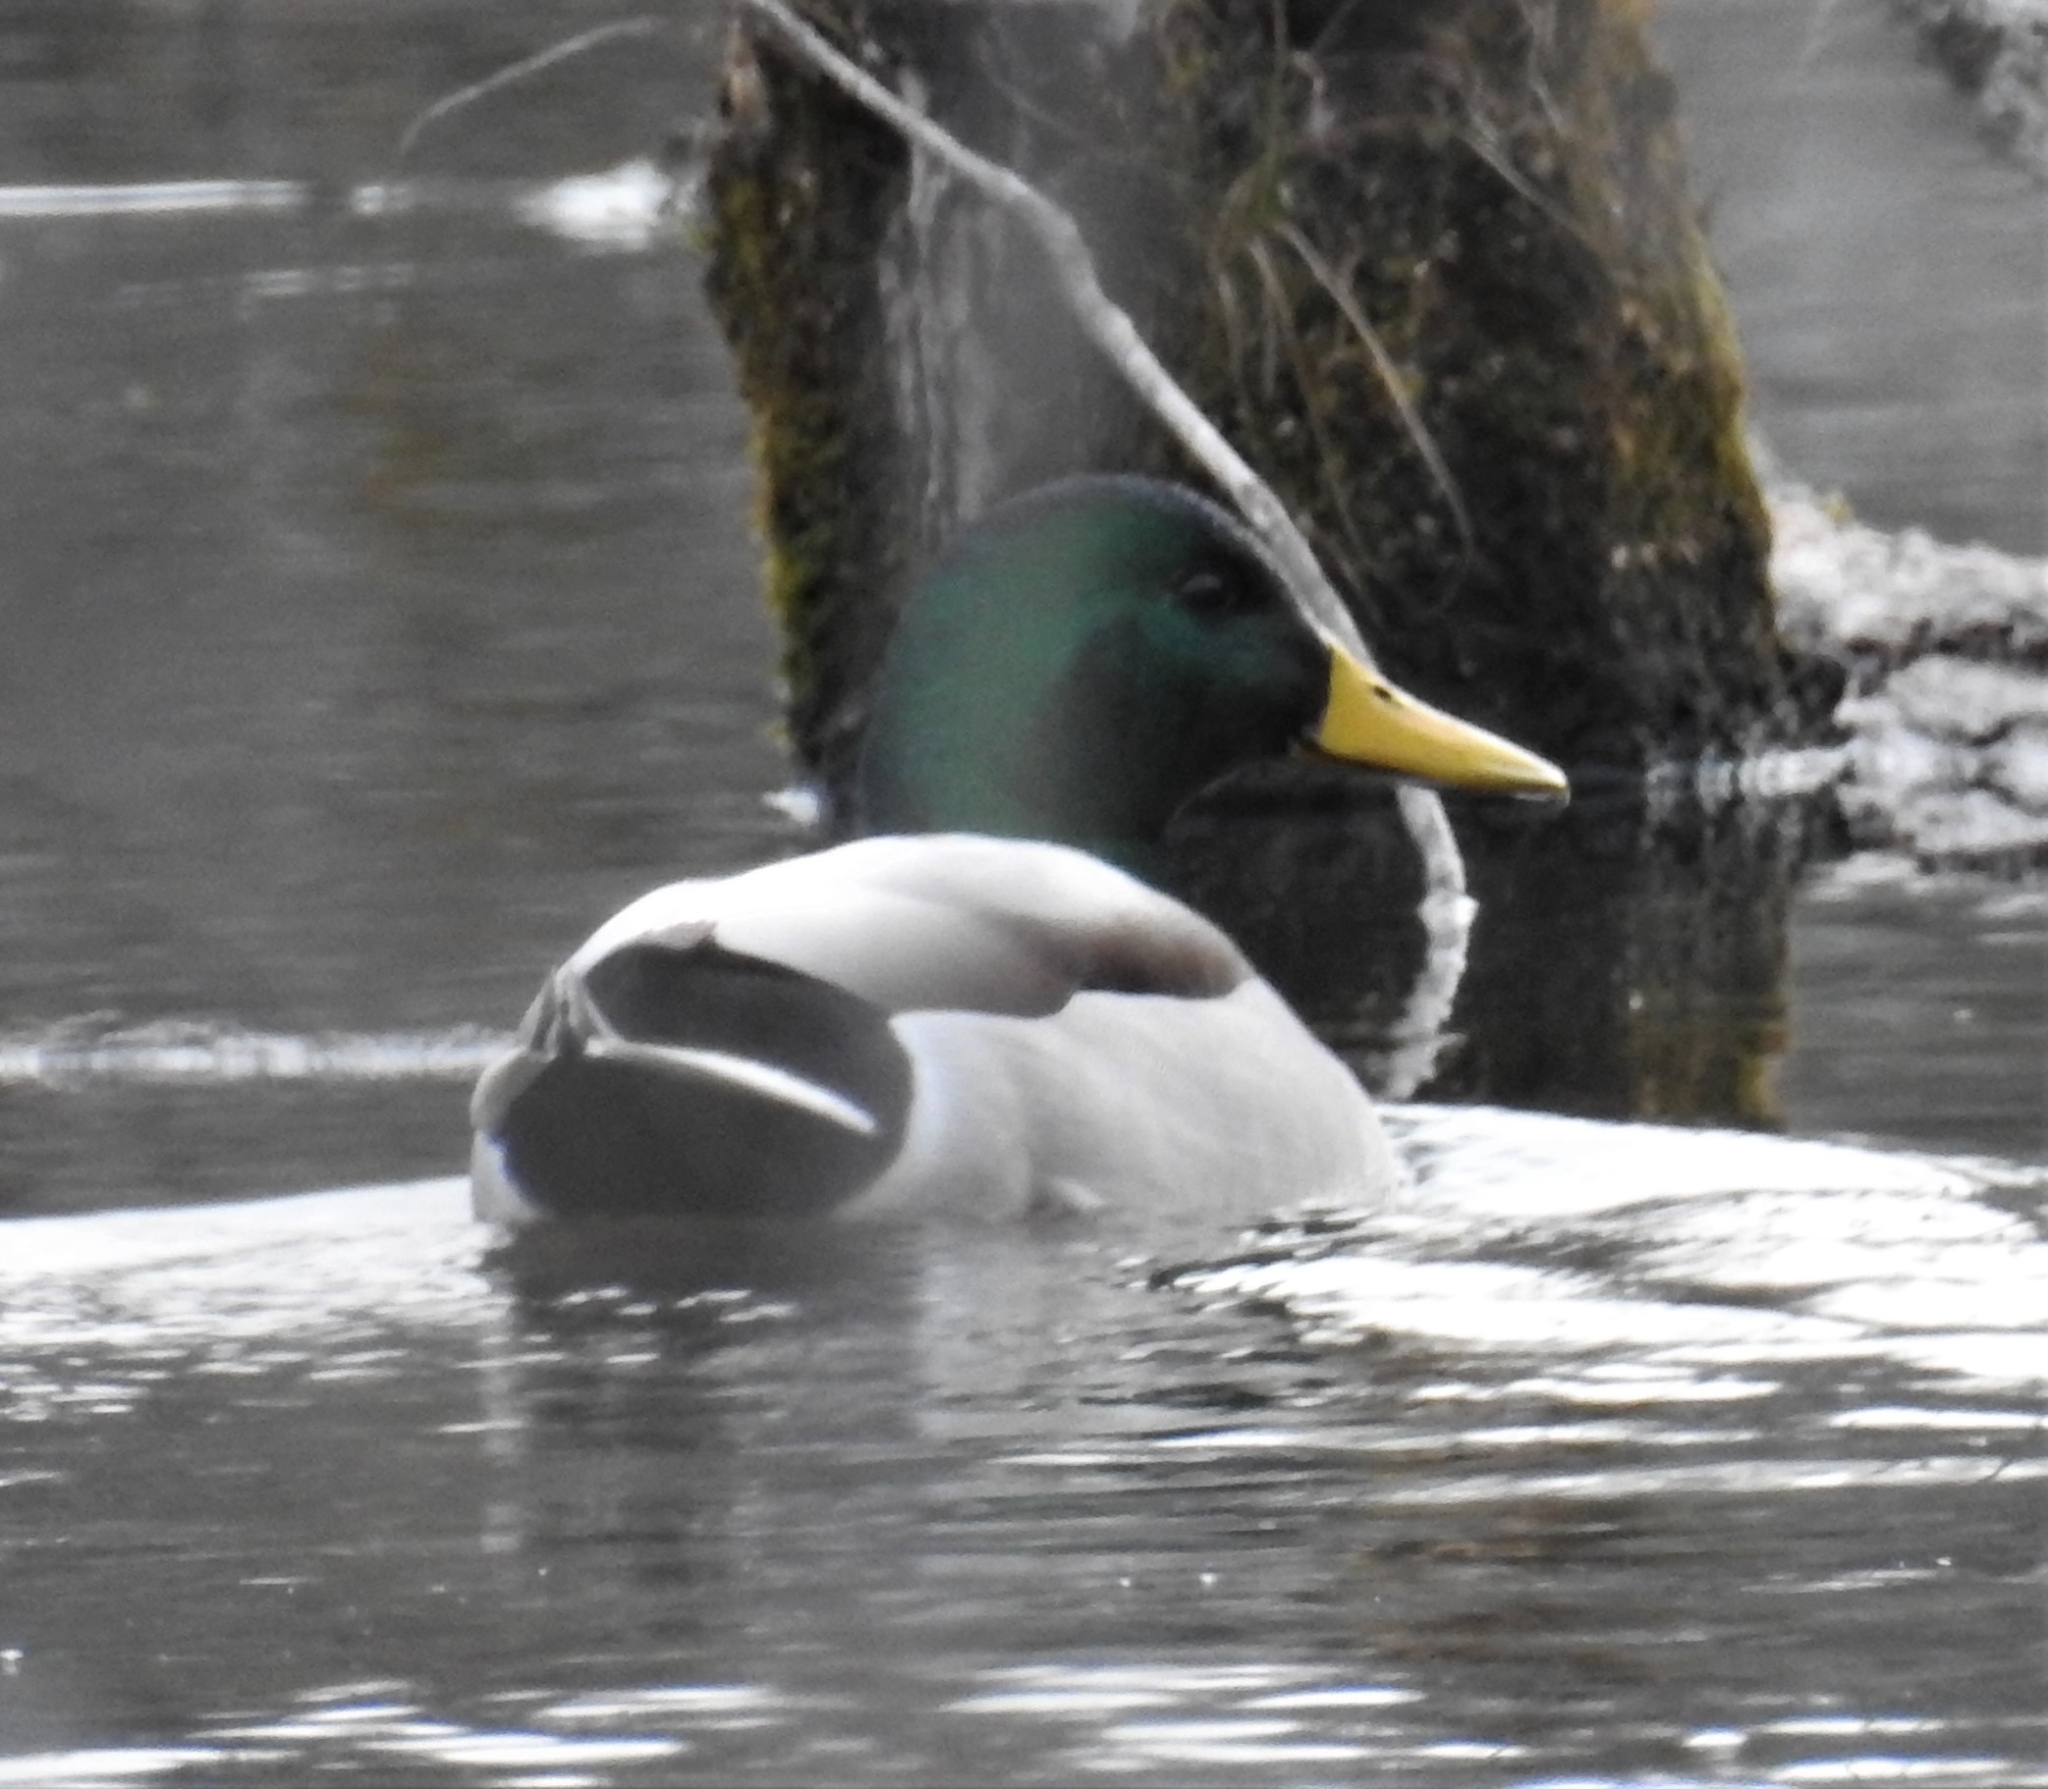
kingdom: Animalia
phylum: Chordata
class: Aves
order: Anseriformes
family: Anatidae
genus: Anas
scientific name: Anas platyrhynchos
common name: Mallard
